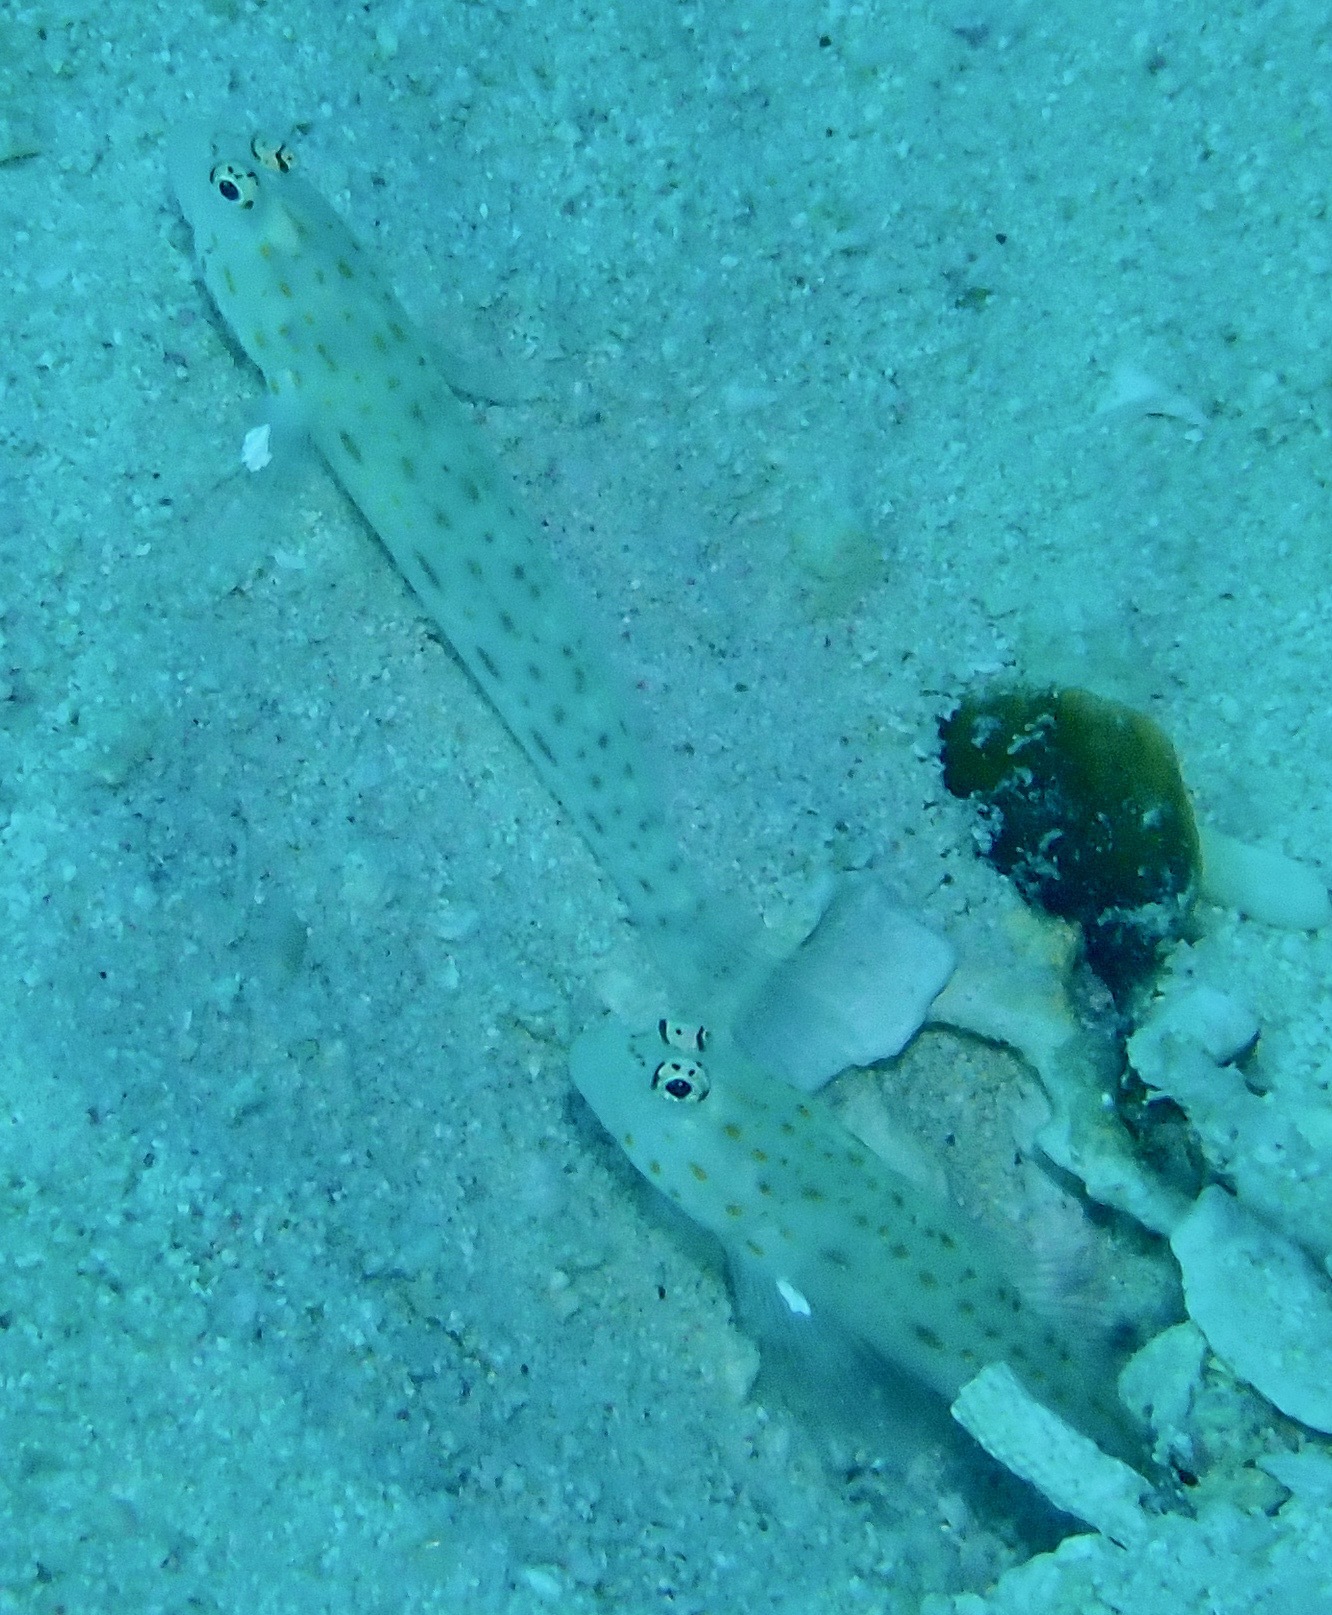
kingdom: Animalia
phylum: Chordata
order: Perciformes
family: Gobiidae
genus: Ctenogobiops
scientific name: Ctenogobiops pomastictus
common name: Spotfin shrimp goby
